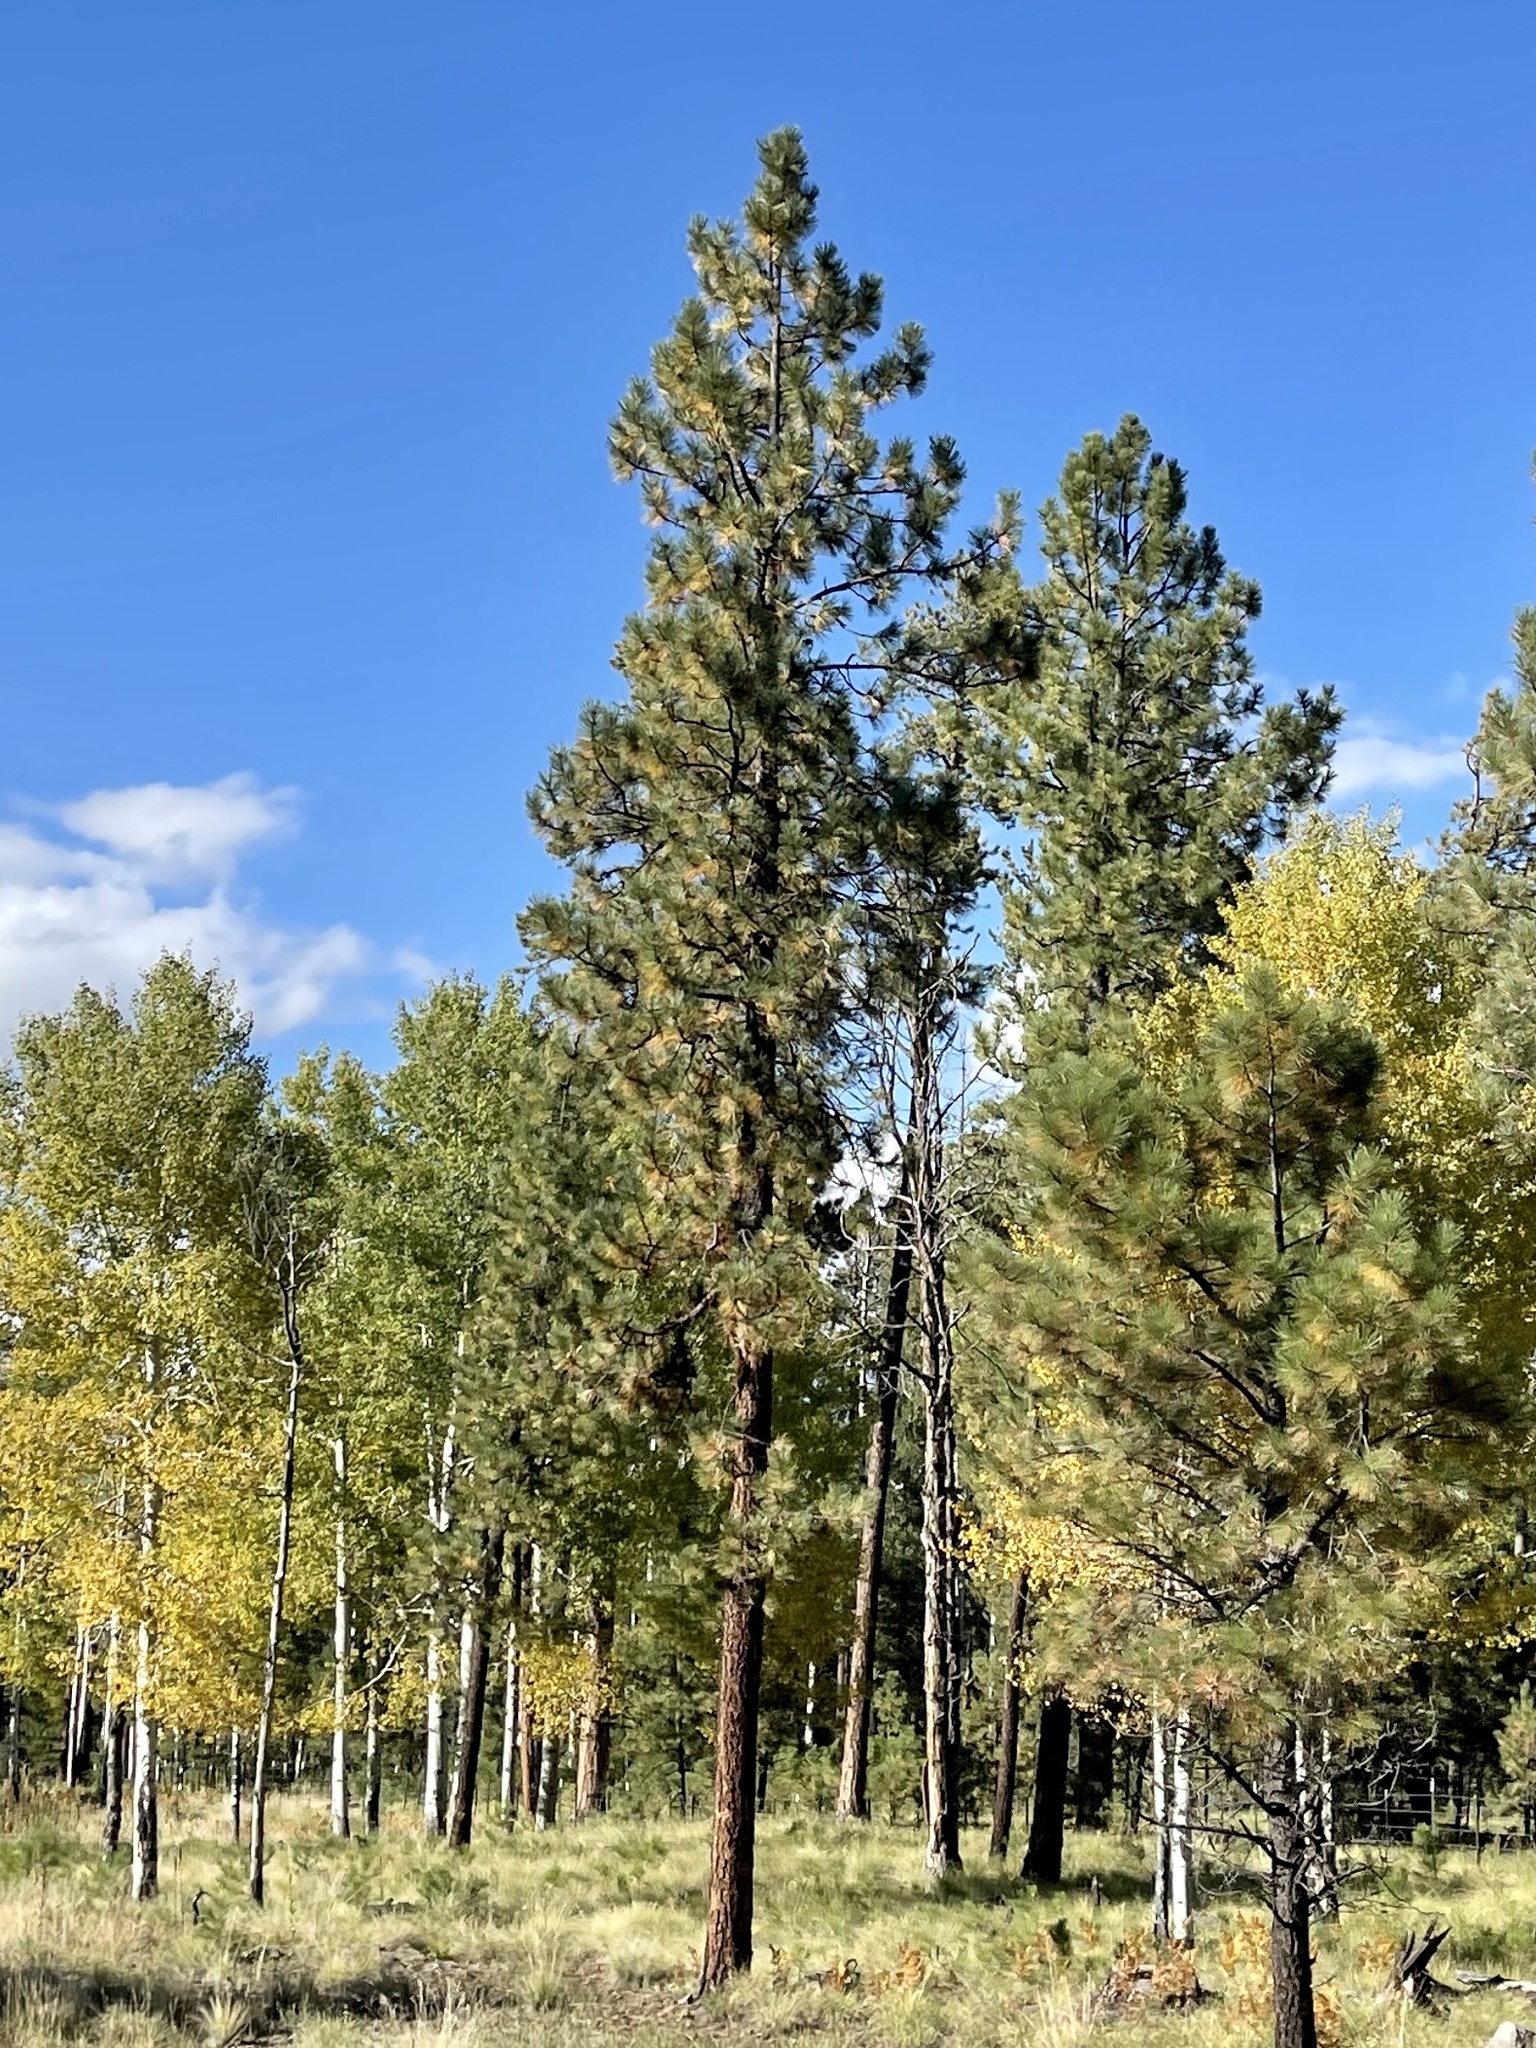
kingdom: Plantae
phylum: Tracheophyta
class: Pinopsida
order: Pinales
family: Pinaceae
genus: Pinus
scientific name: Pinus ponderosa
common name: Western yellow-pine
